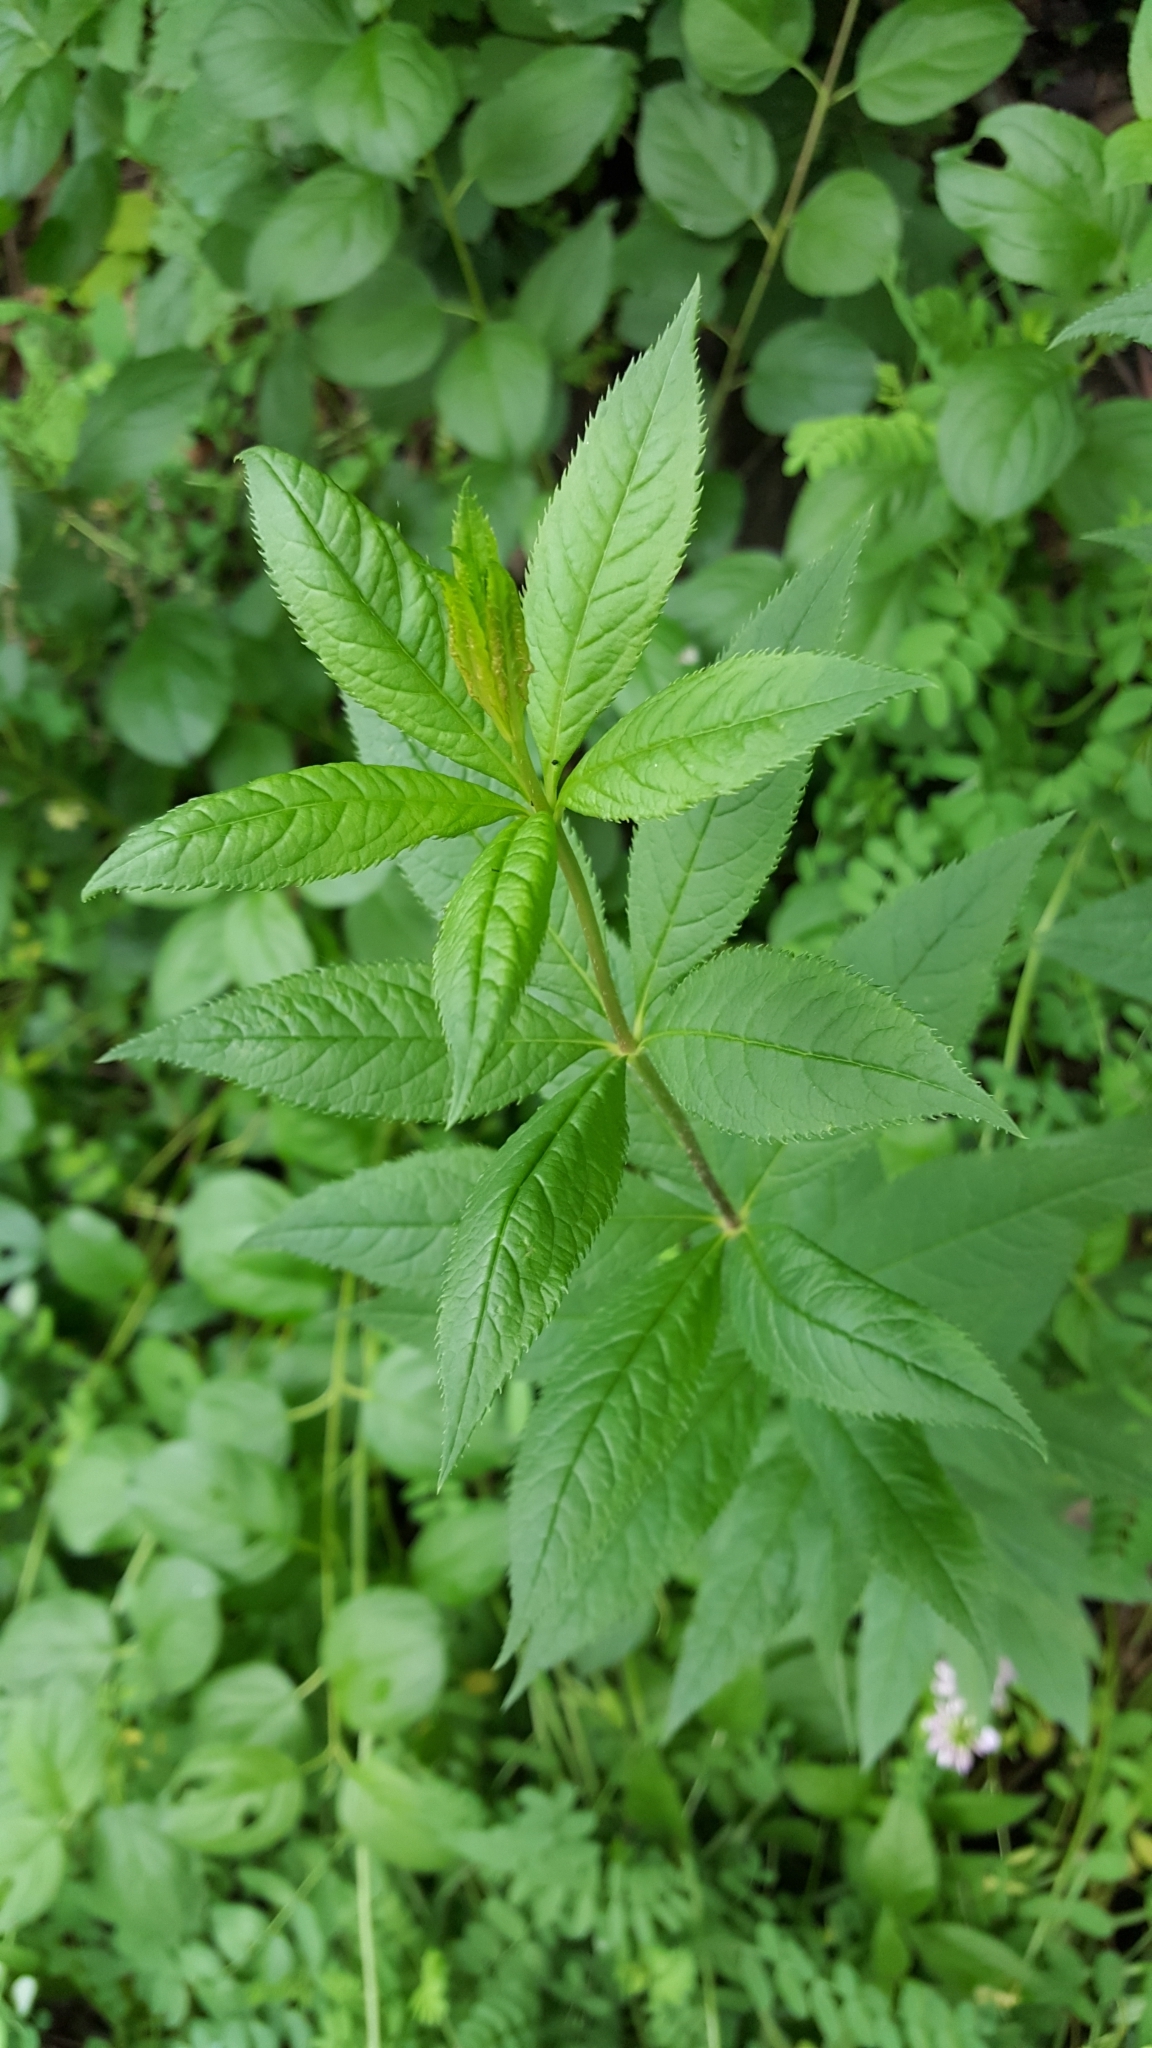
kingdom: Plantae
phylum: Tracheophyta
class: Magnoliopsida
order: Lamiales
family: Plantaginaceae
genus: Veronicastrum
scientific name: Veronicastrum virginicum
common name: Blackroot
